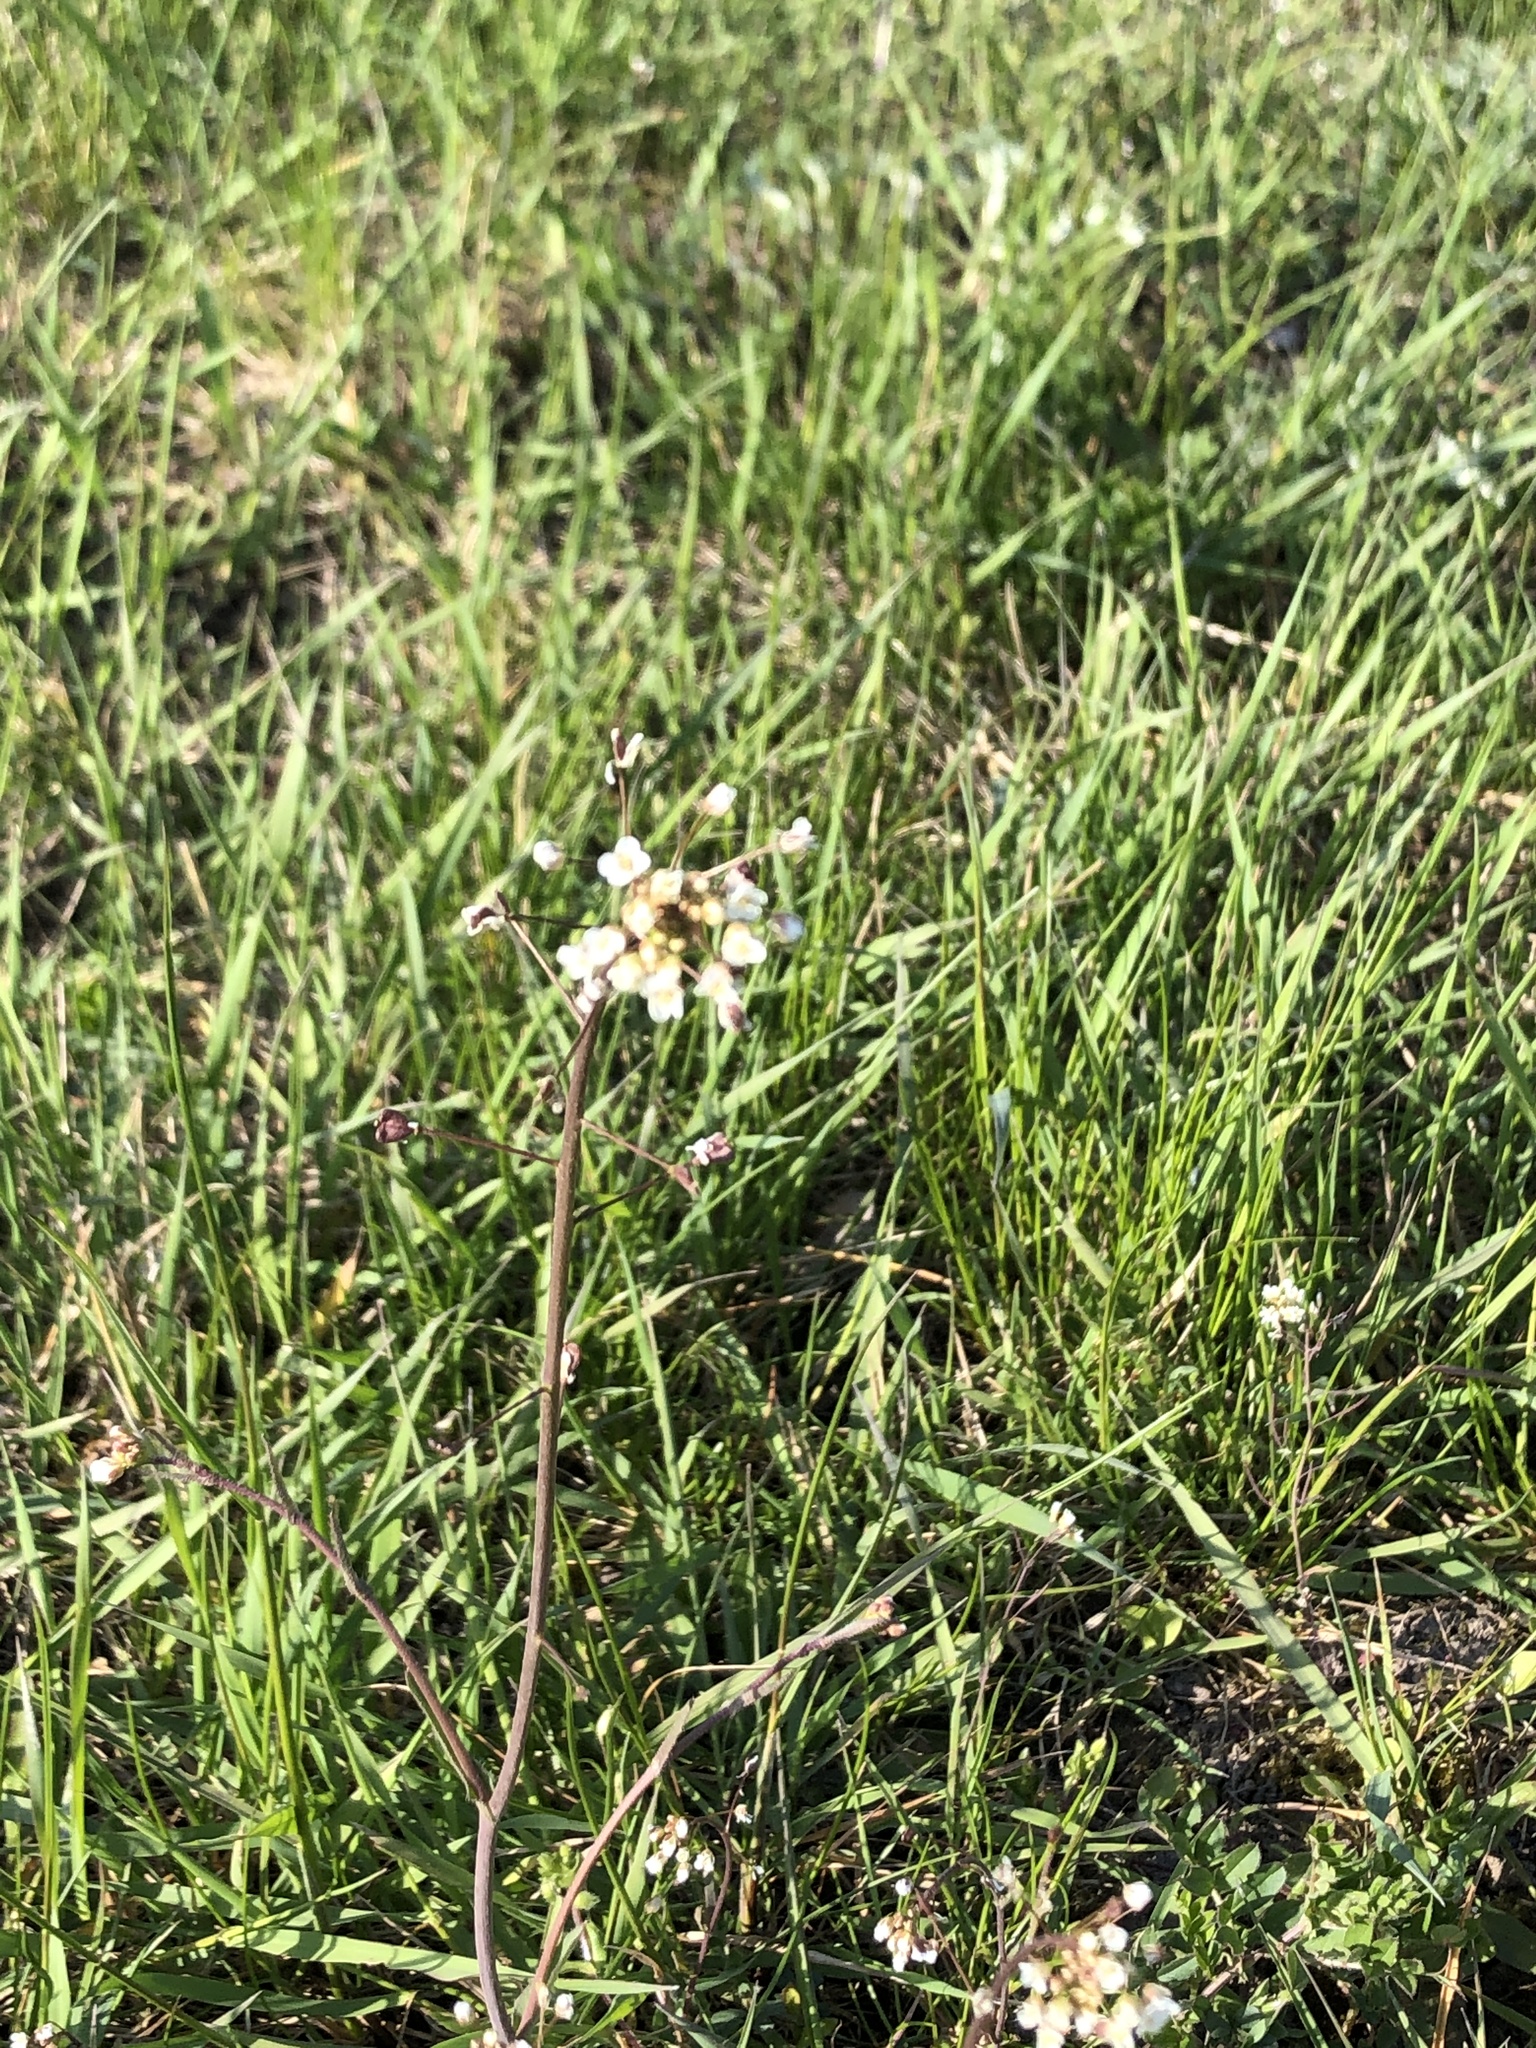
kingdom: Plantae
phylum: Tracheophyta
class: Magnoliopsida
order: Brassicales
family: Brassicaceae
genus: Capsella
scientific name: Capsella bursa-pastoris
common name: Shepherd's purse
